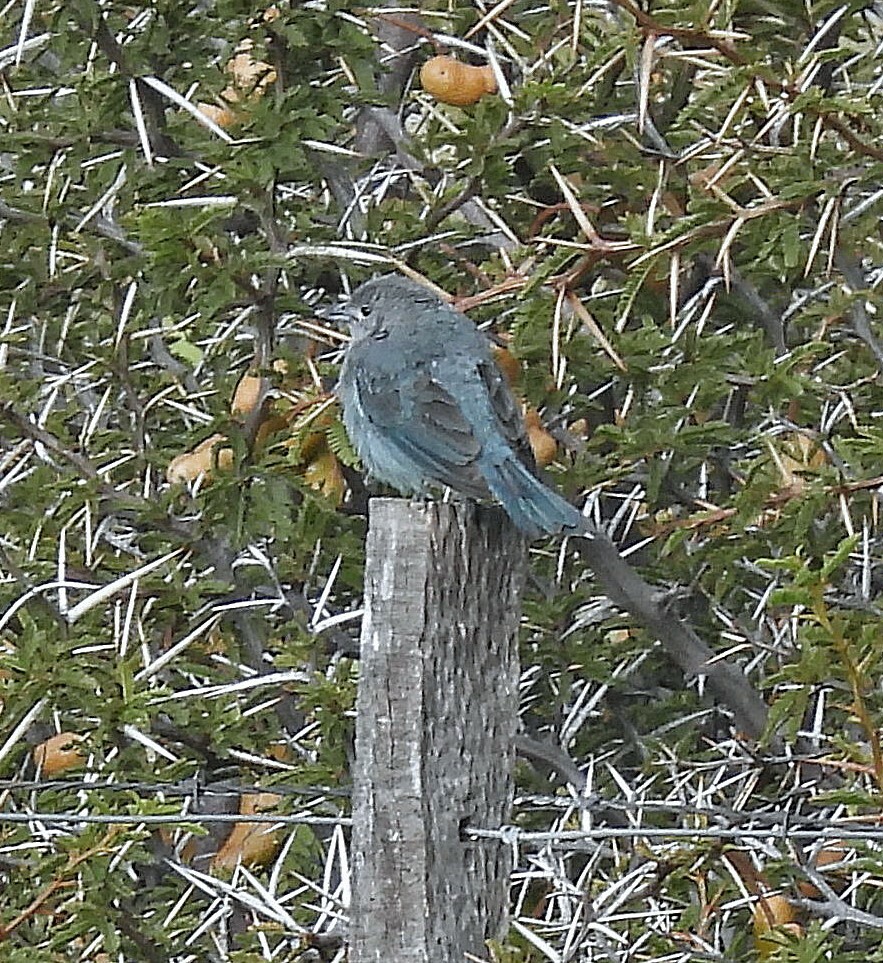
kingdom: Animalia
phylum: Chordata
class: Aves
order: Passeriformes
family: Thraupidae
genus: Thraupis
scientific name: Thraupis sayaca
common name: Sayaca tanager
